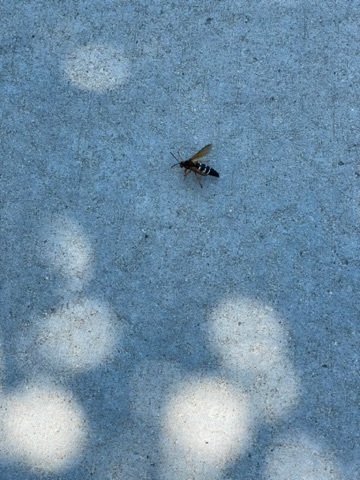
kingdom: Animalia
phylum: Arthropoda
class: Insecta
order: Hymenoptera
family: Crabronidae
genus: Sphecius
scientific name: Sphecius speciosus
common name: Cicada killer
